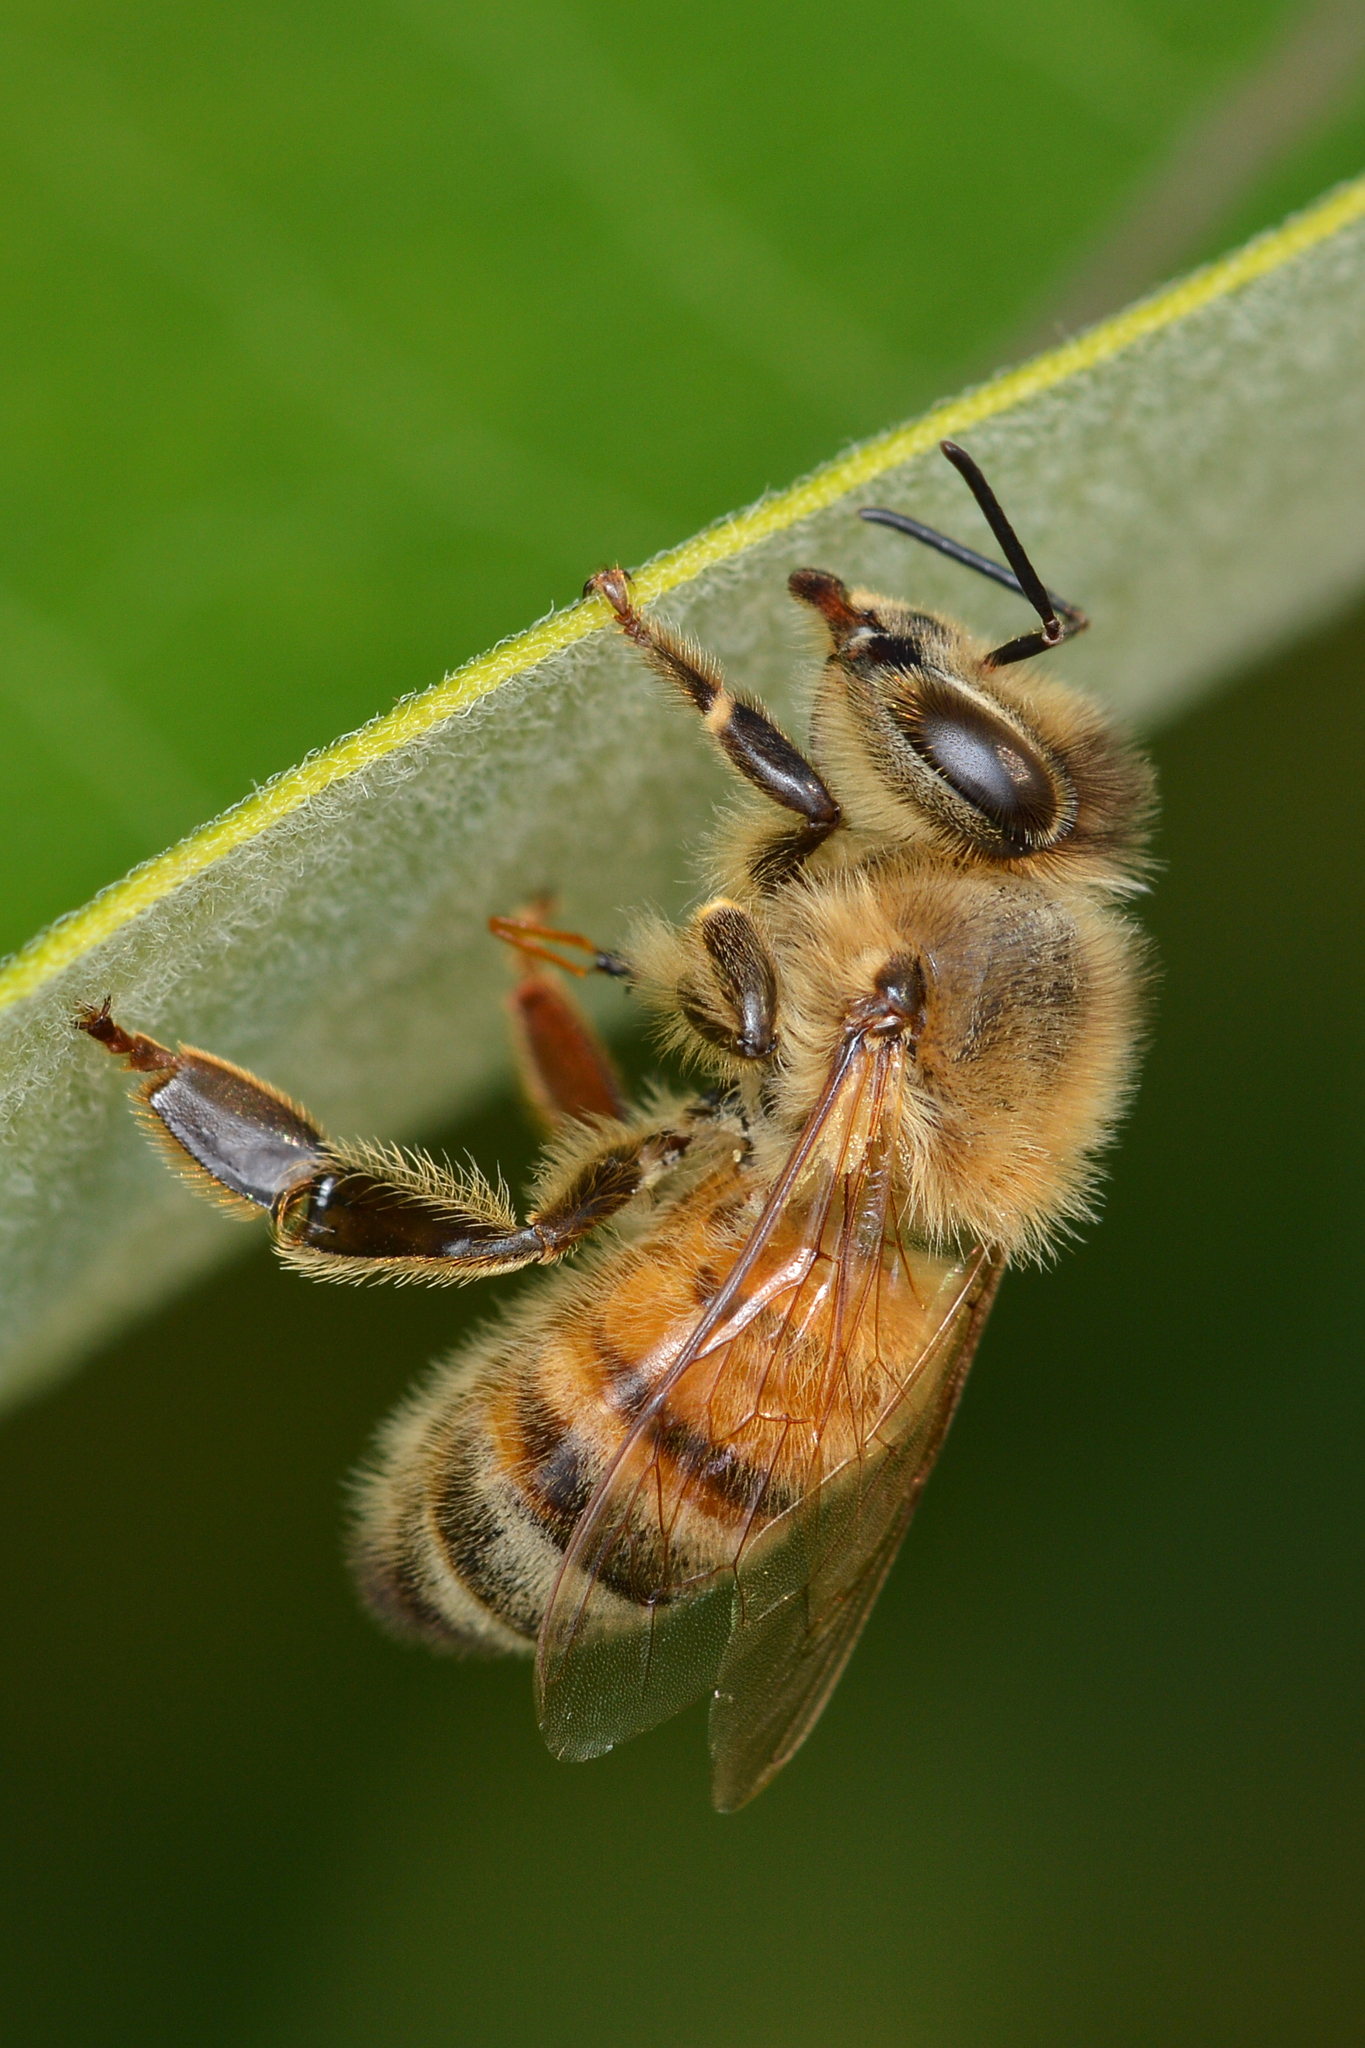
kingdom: Animalia
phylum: Arthropoda
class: Insecta
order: Hymenoptera
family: Apidae
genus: Apis
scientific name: Apis mellifera
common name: Honey bee
